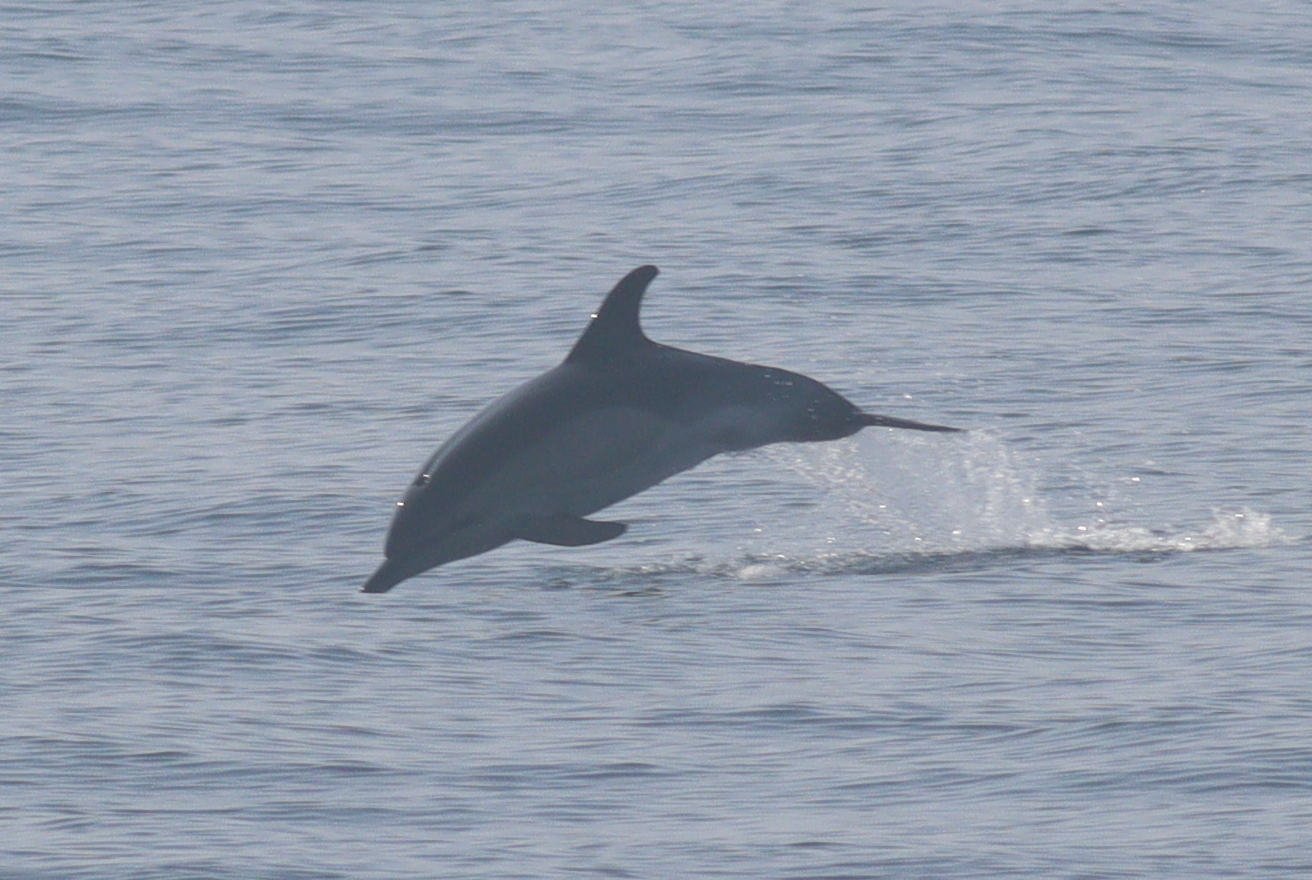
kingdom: Animalia
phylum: Chordata
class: Mammalia
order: Cetacea
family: Delphinidae
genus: Delphinus
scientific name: Delphinus delphis
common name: Common dolphin
